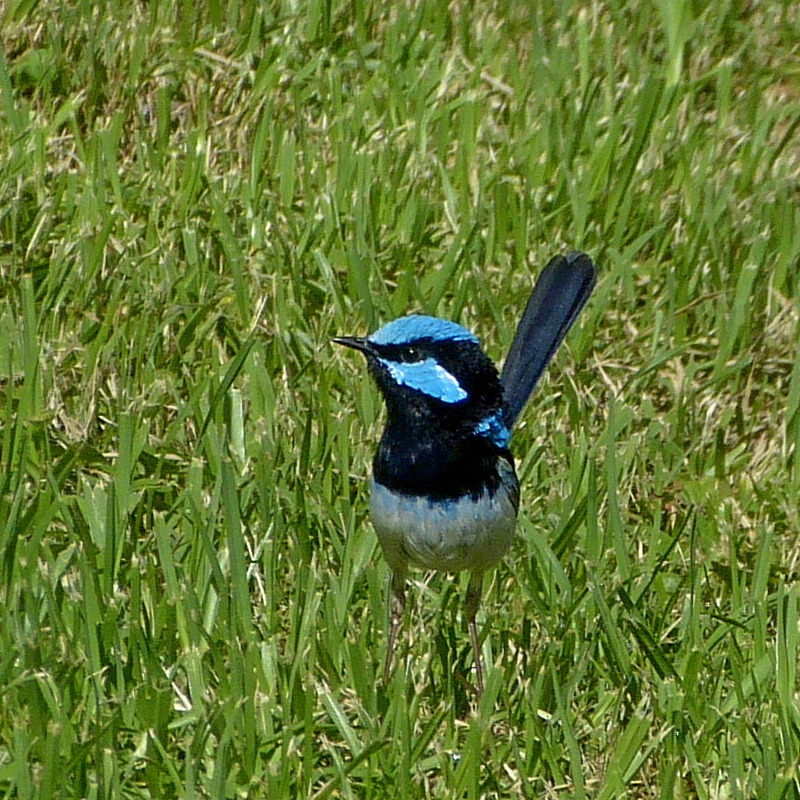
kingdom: Animalia
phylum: Chordata
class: Aves
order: Passeriformes
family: Maluridae
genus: Malurus
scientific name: Malurus cyaneus
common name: Superb fairywren
